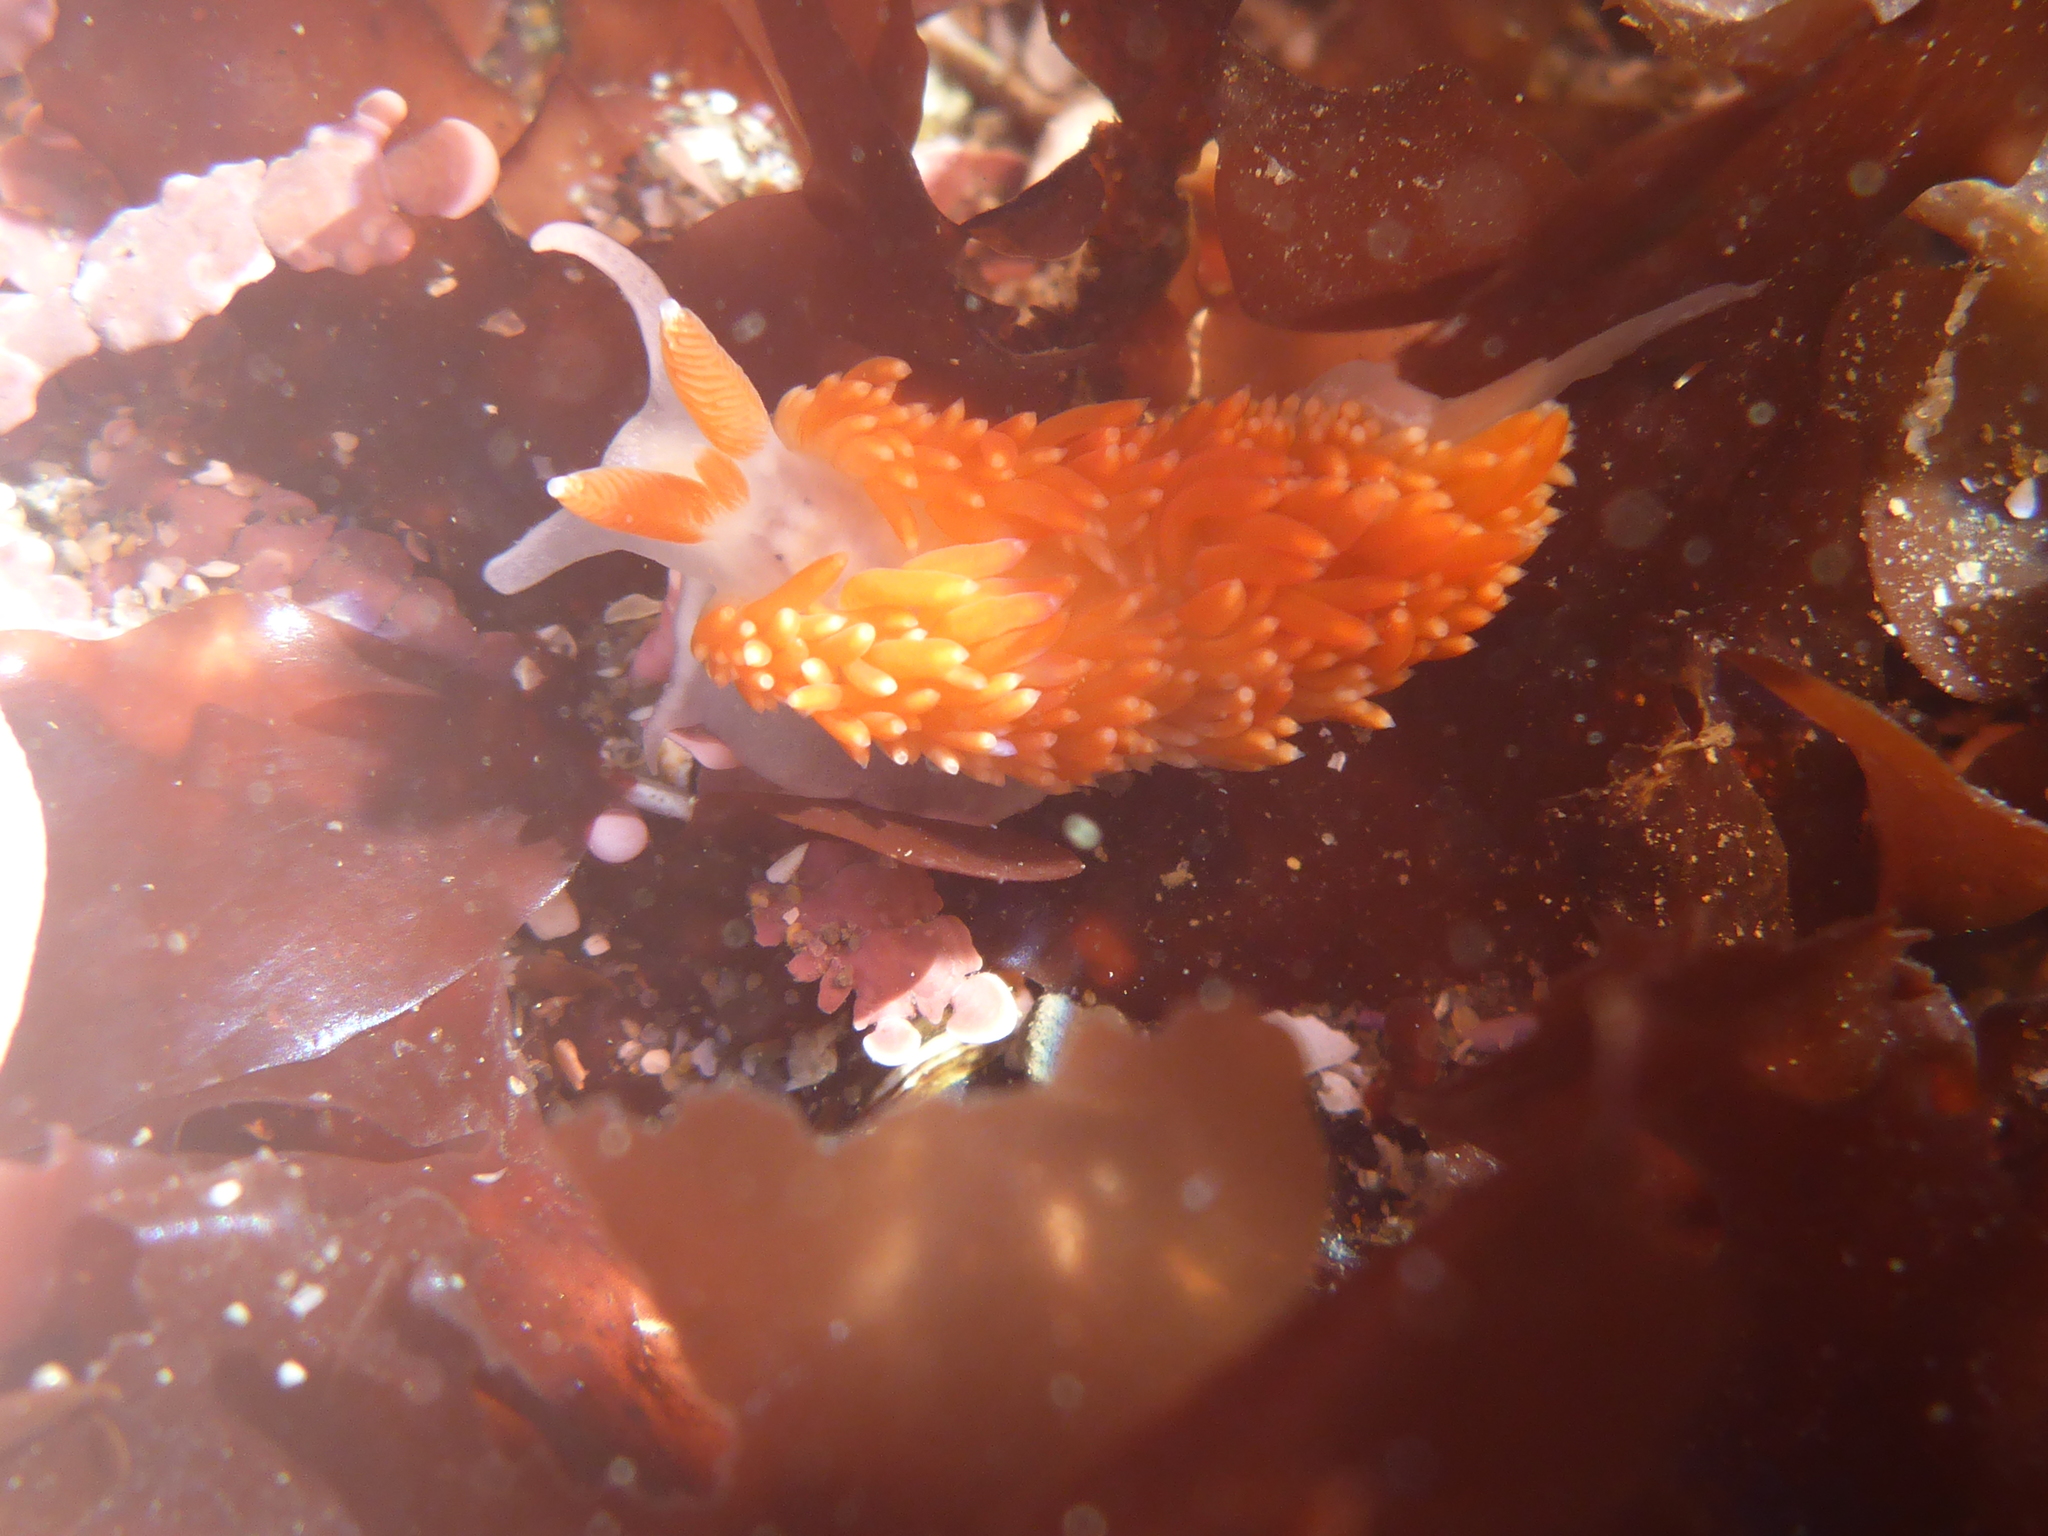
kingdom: Animalia
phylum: Mollusca
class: Gastropoda
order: Nudibranchia
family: Aeolidiidae
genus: Anteaeolidiella
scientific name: Anteaeolidiella oliviae
